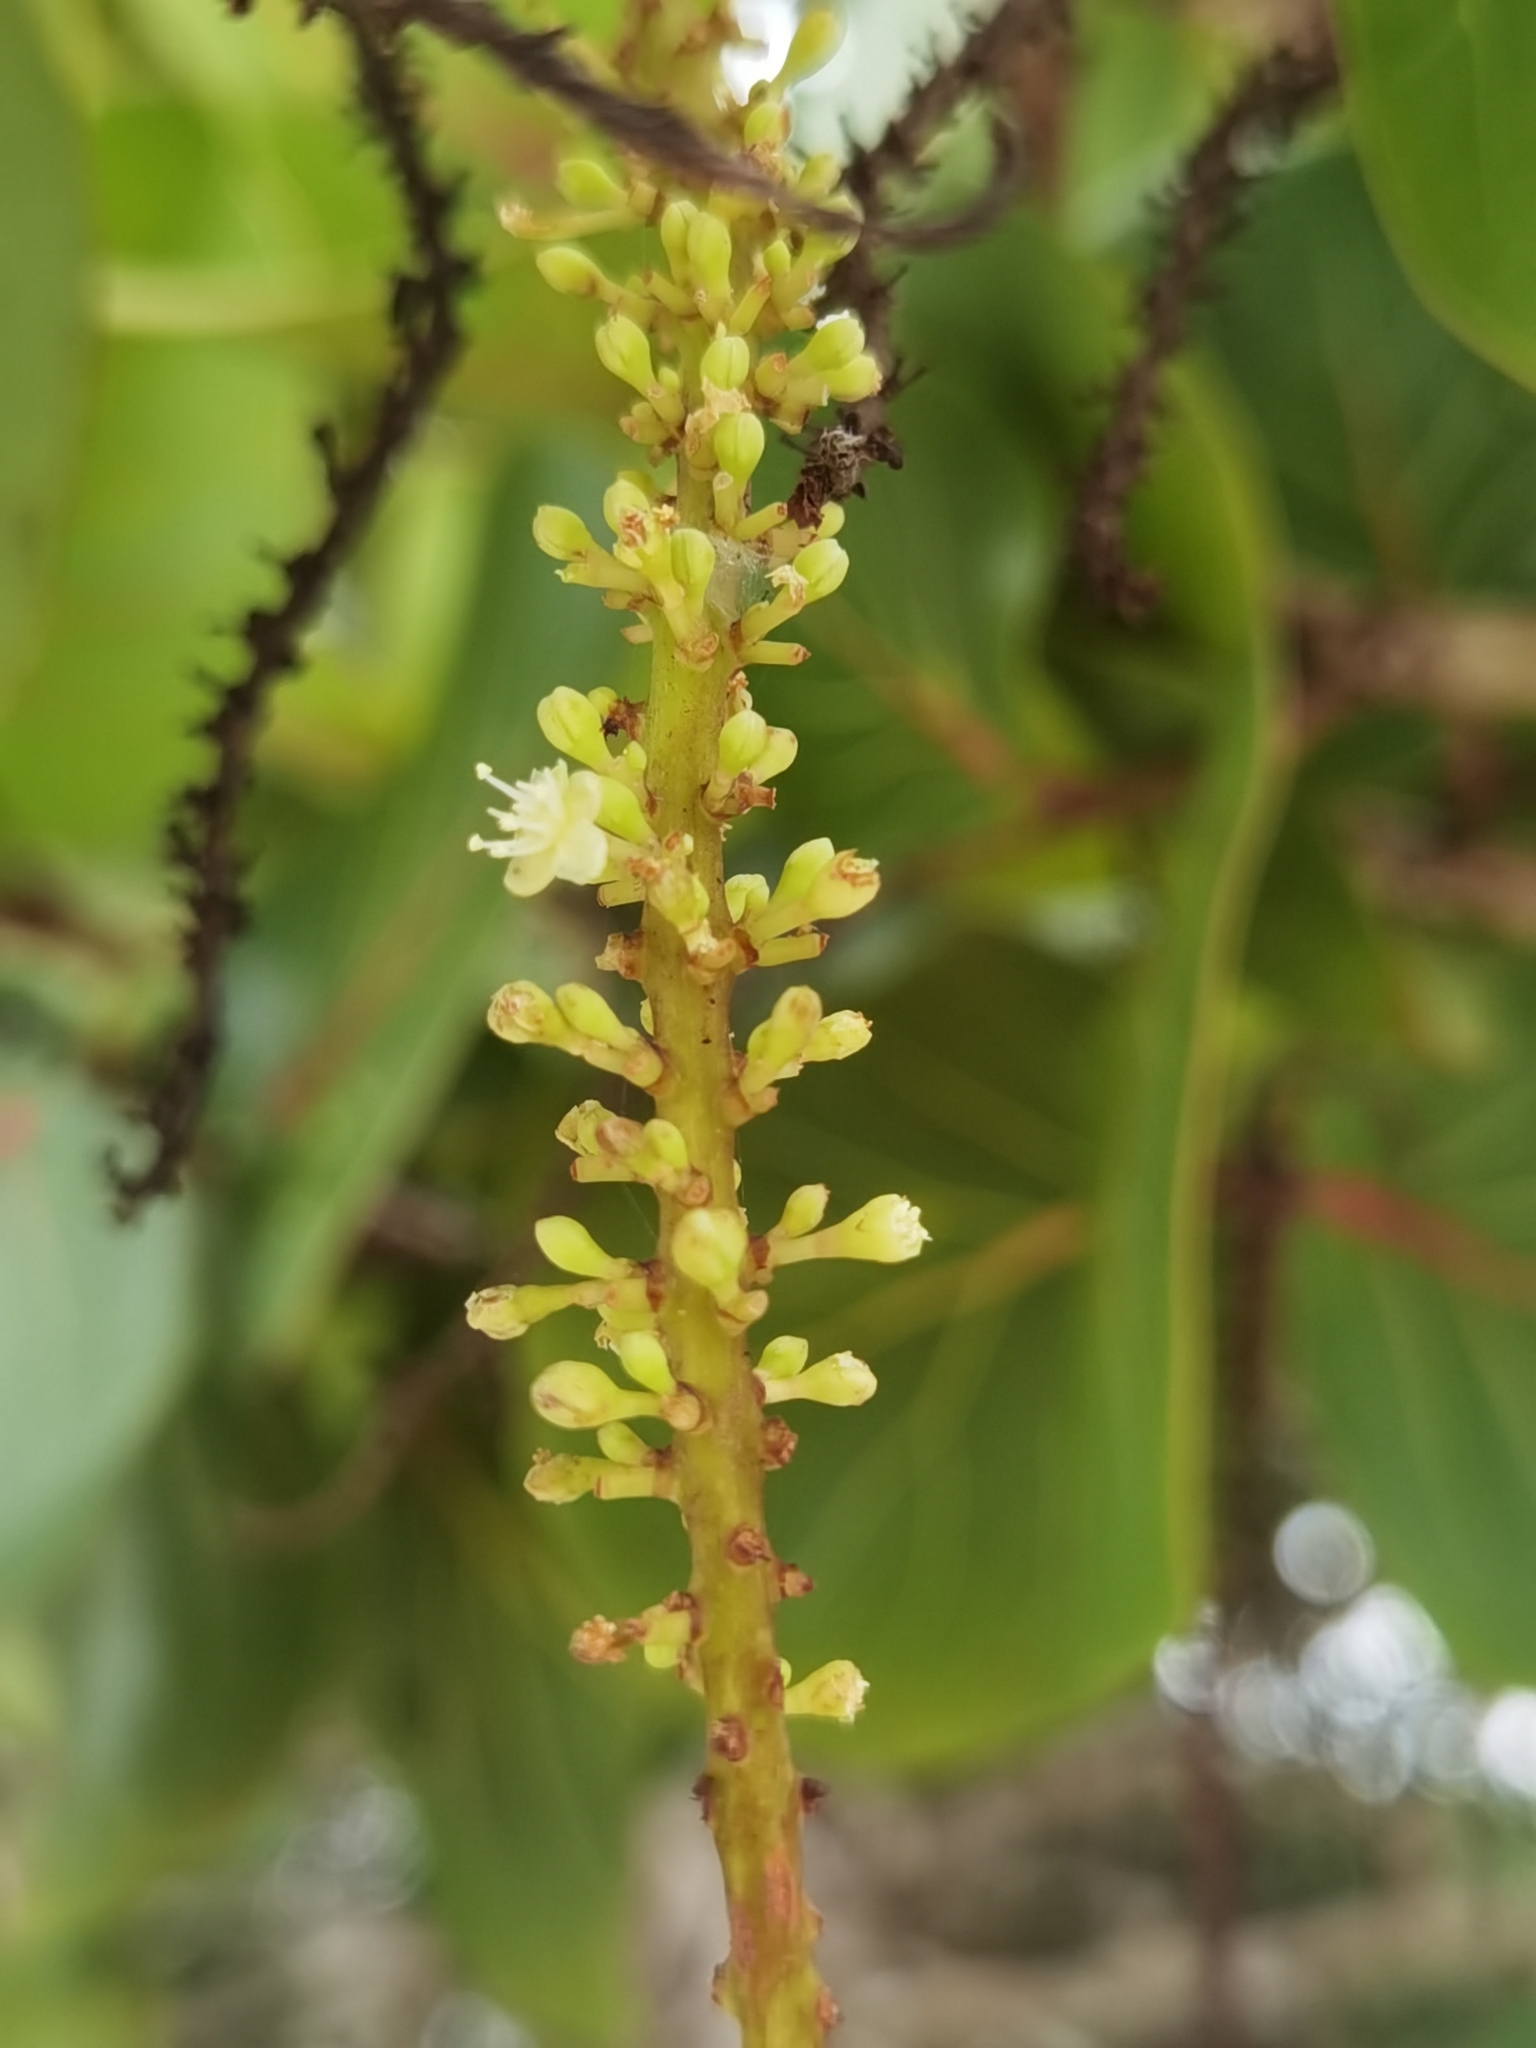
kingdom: Plantae
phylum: Tracheophyta
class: Magnoliopsida
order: Caryophyllales
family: Polygonaceae
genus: Coccoloba
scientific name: Coccoloba uvifera
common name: Seagrape
